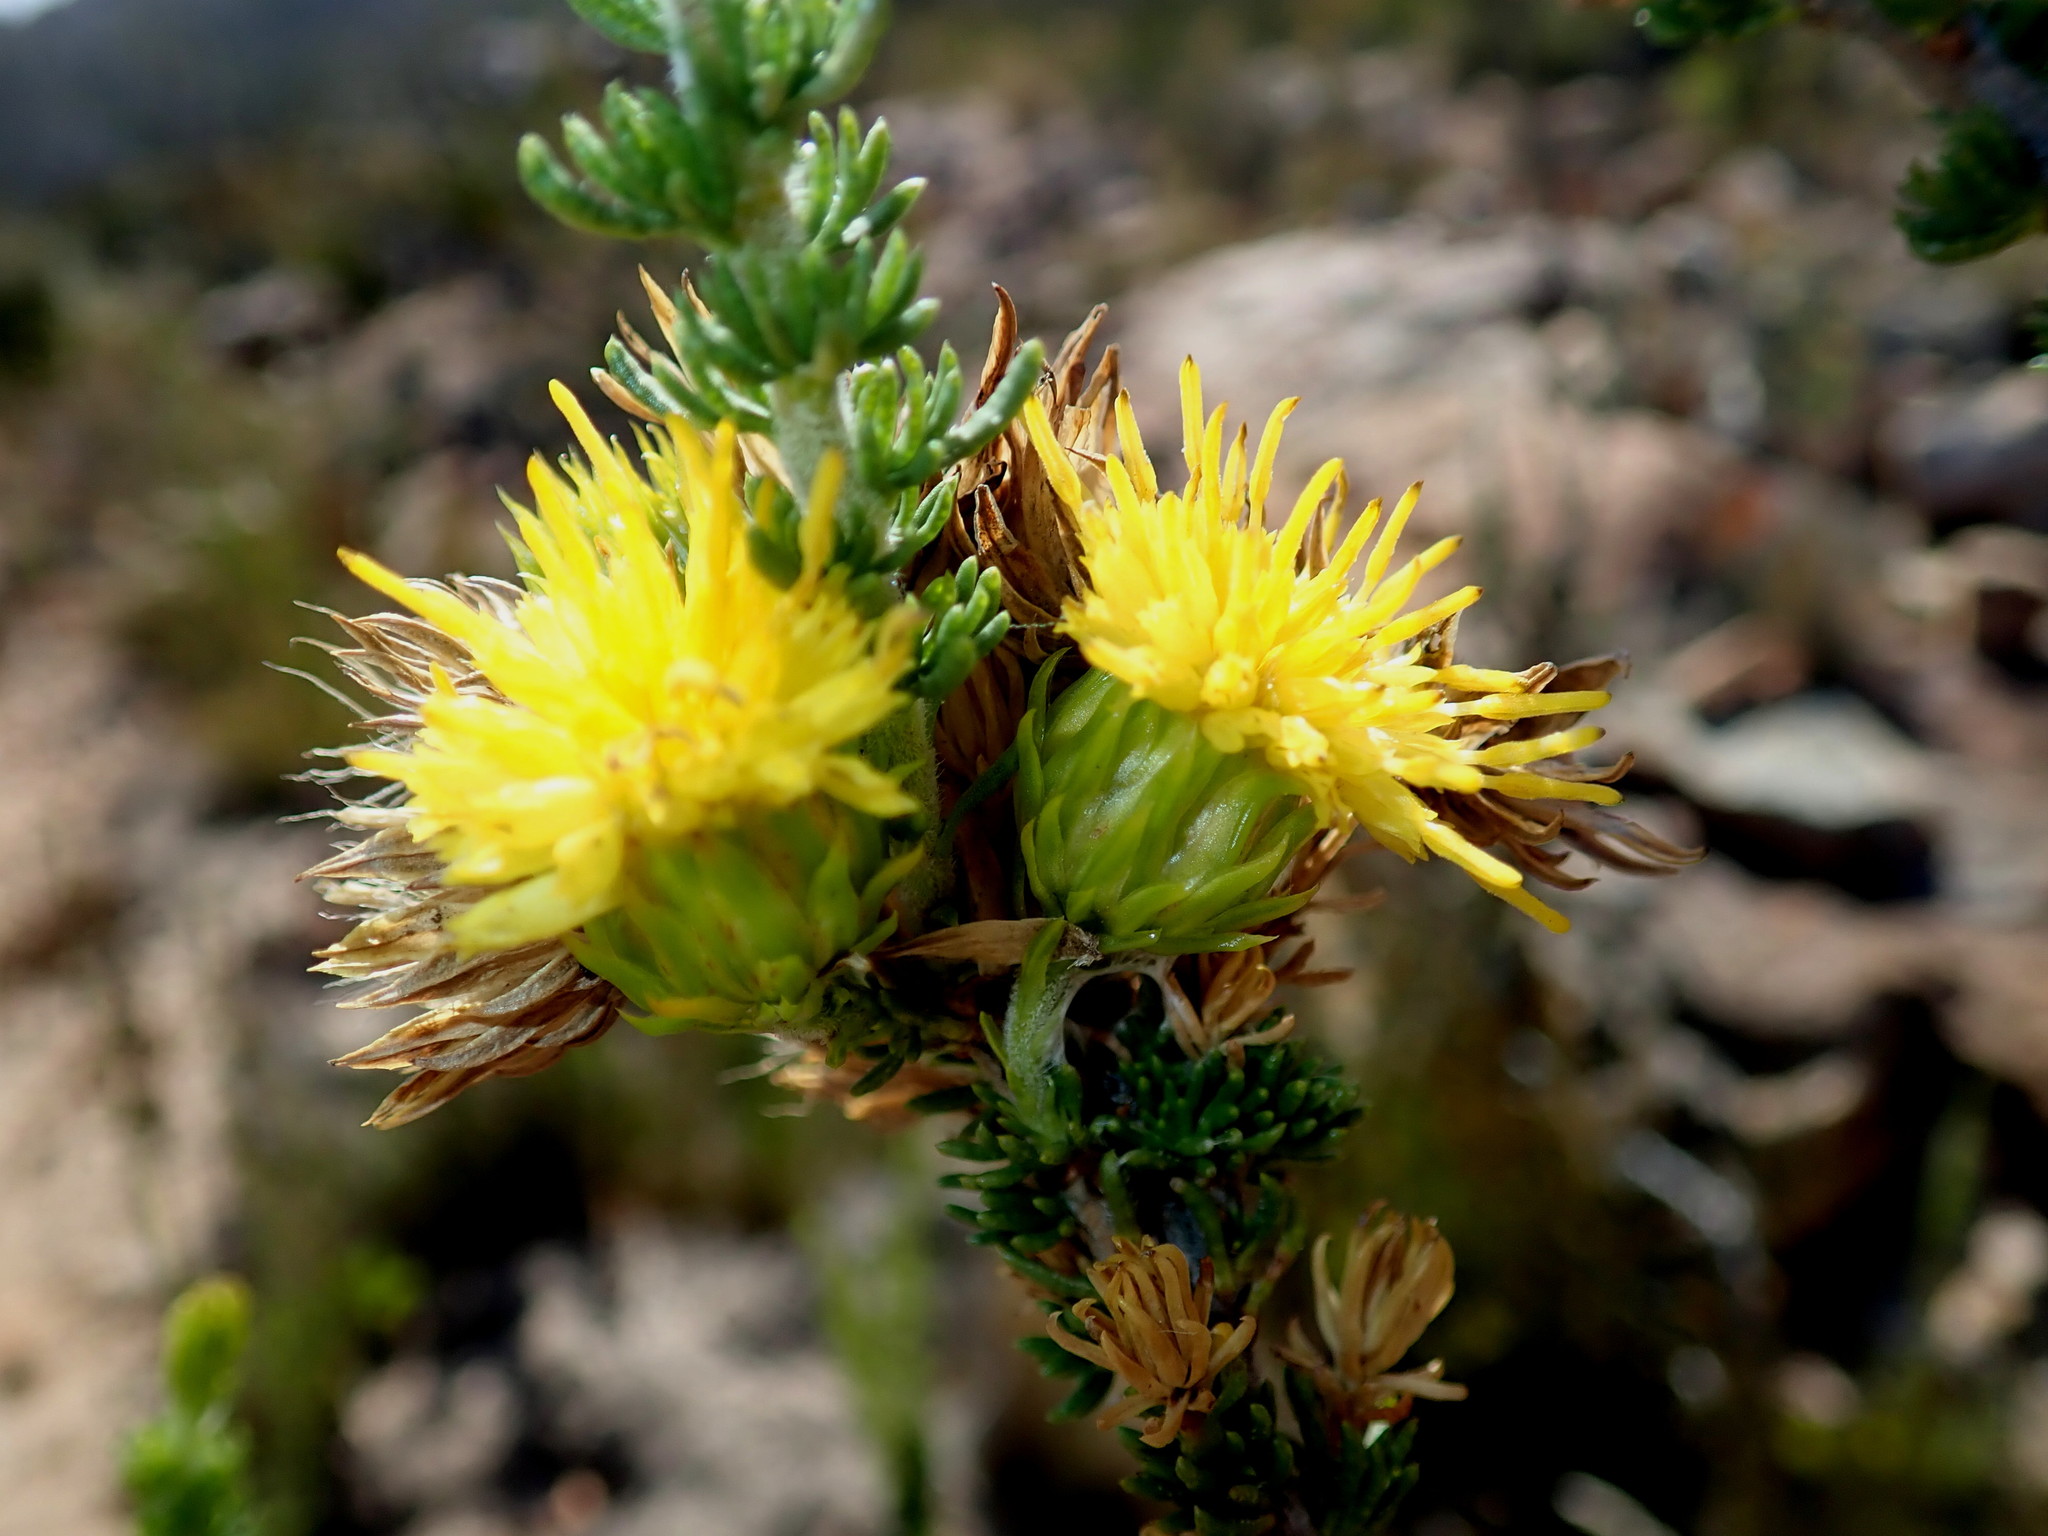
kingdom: Plantae
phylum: Tracheophyta
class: Magnoliopsida
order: Asterales
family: Asteraceae
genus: Pteronia
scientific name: Pteronia camphorata
